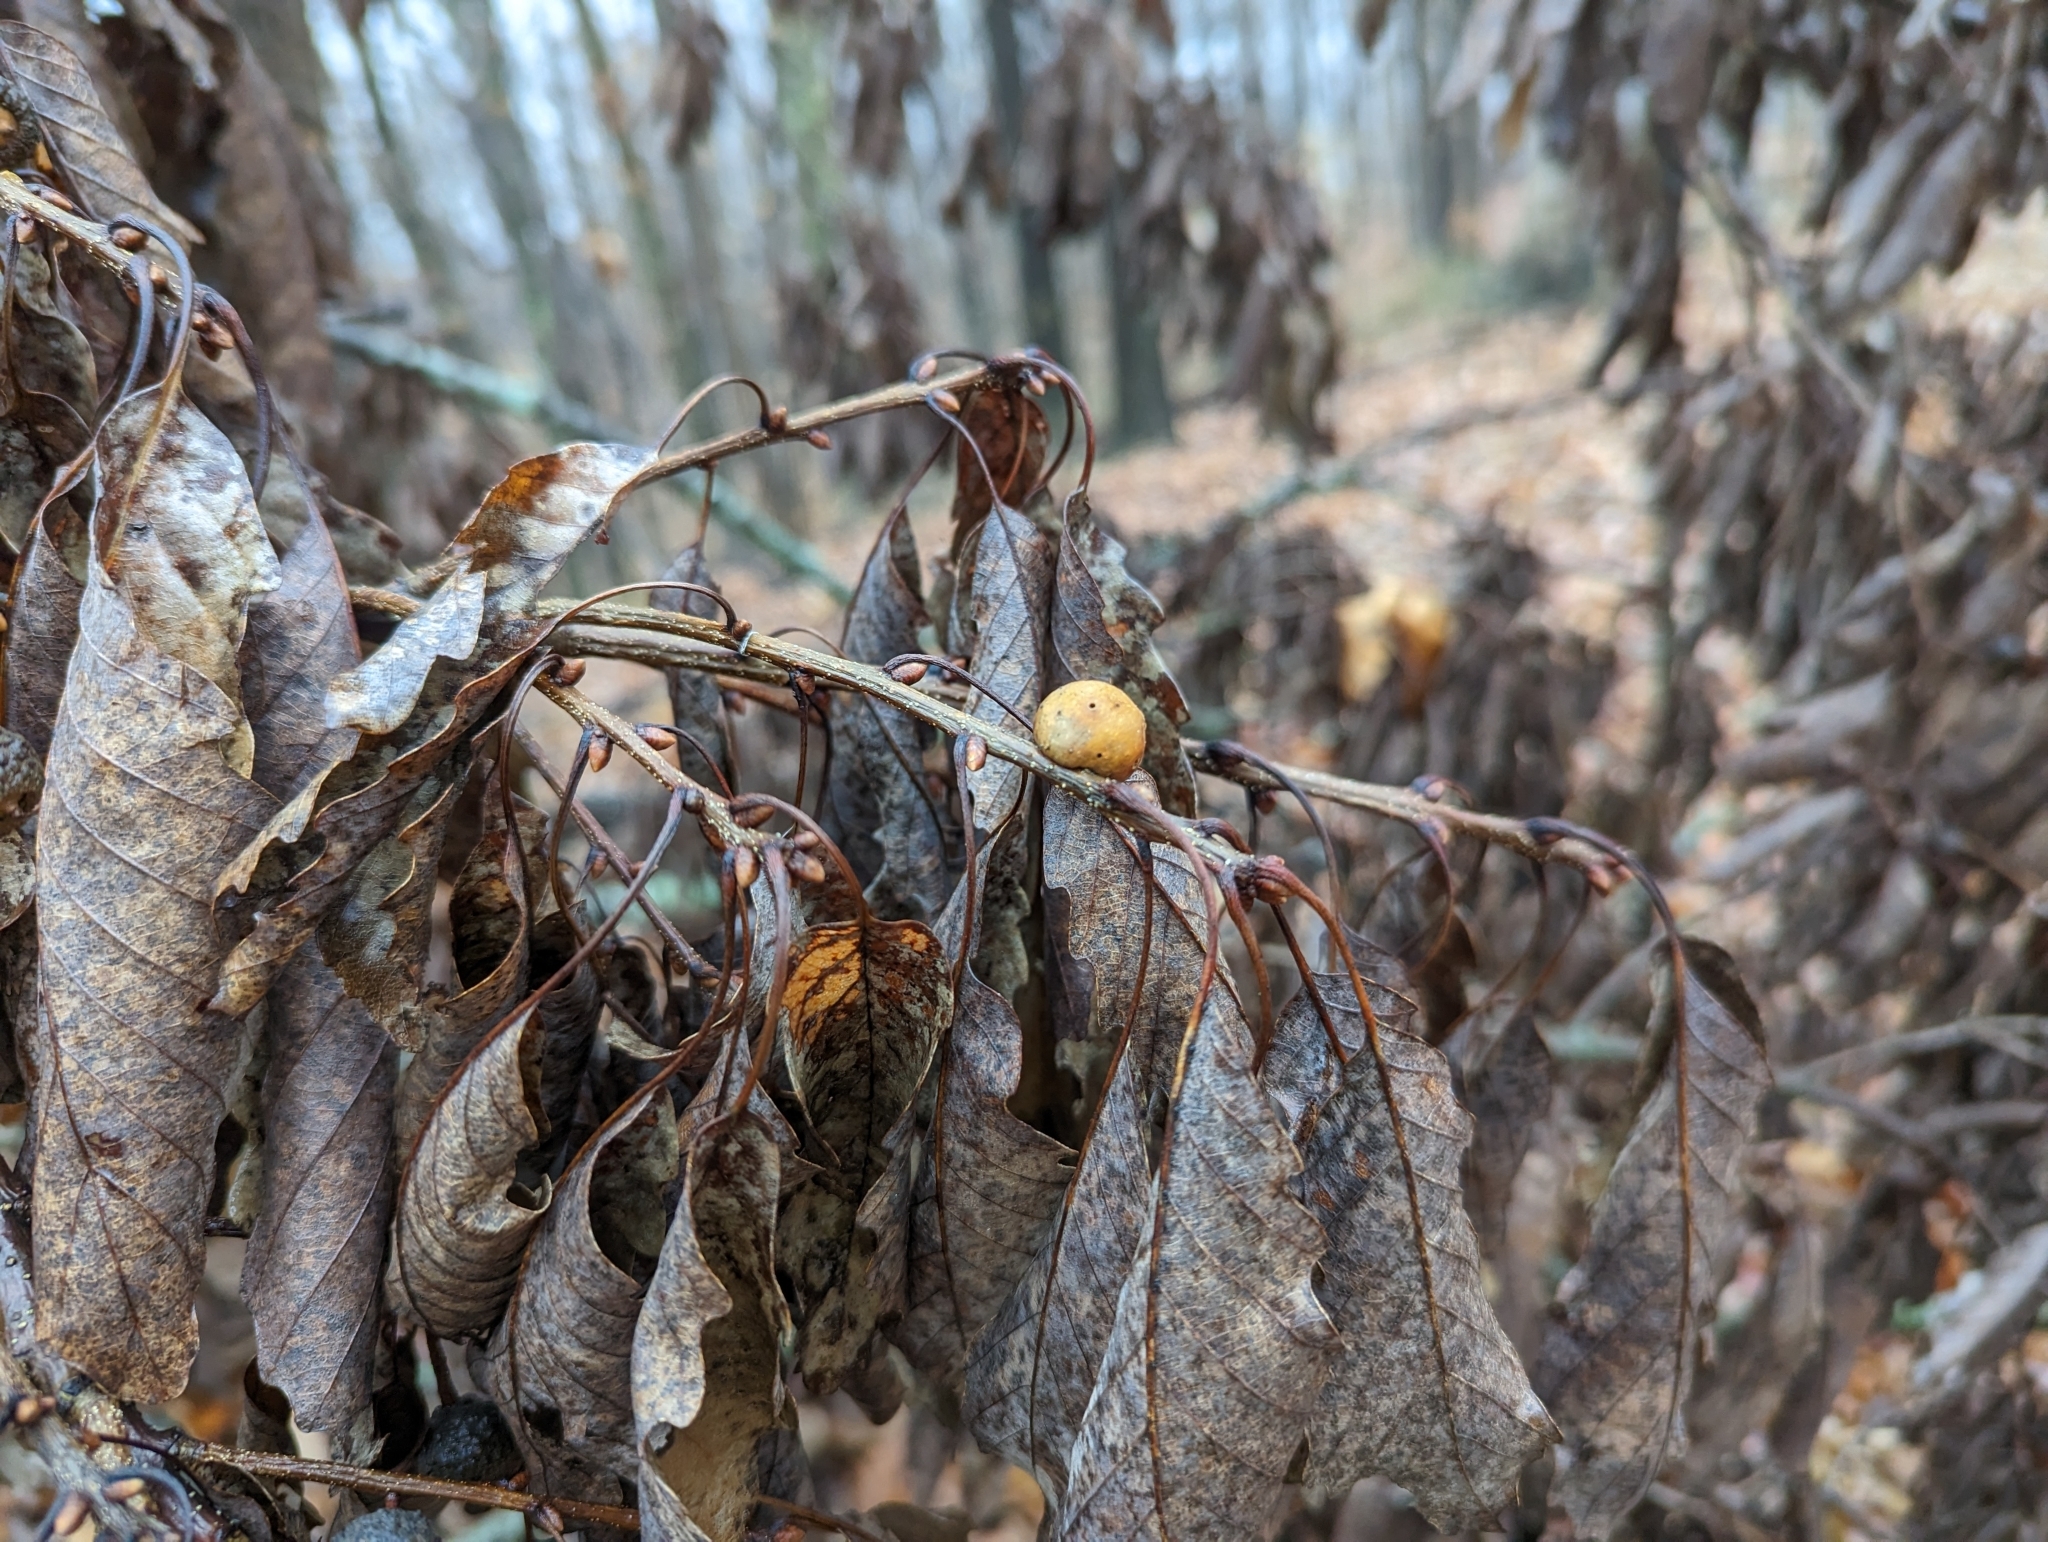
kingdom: Animalia
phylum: Arthropoda
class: Insecta
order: Hymenoptera
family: Cynipidae
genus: Disholcaspis
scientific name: Disholcaspis quercusglobulus
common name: Round bullet gall wasp
